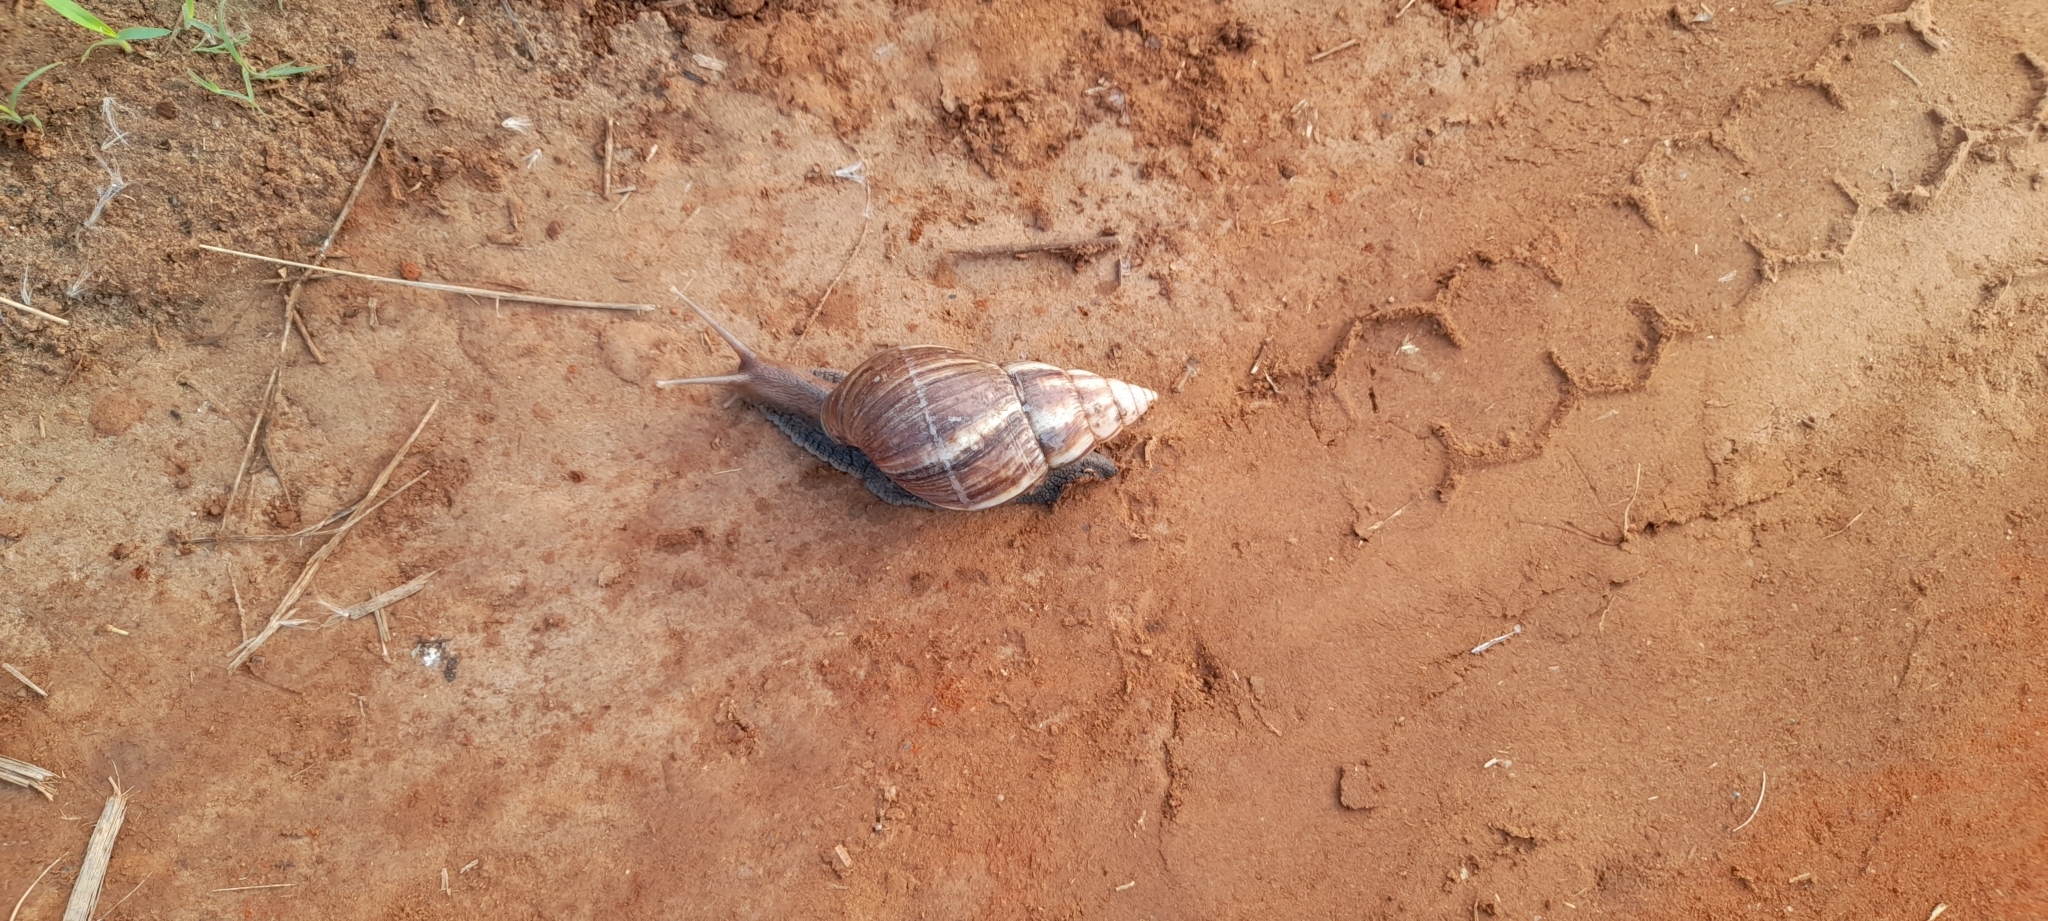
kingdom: Animalia
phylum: Mollusca
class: Gastropoda
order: Stylommatophora
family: Achatinidae
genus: Lissachatina
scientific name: Lissachatina fulica
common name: Giant african snail
